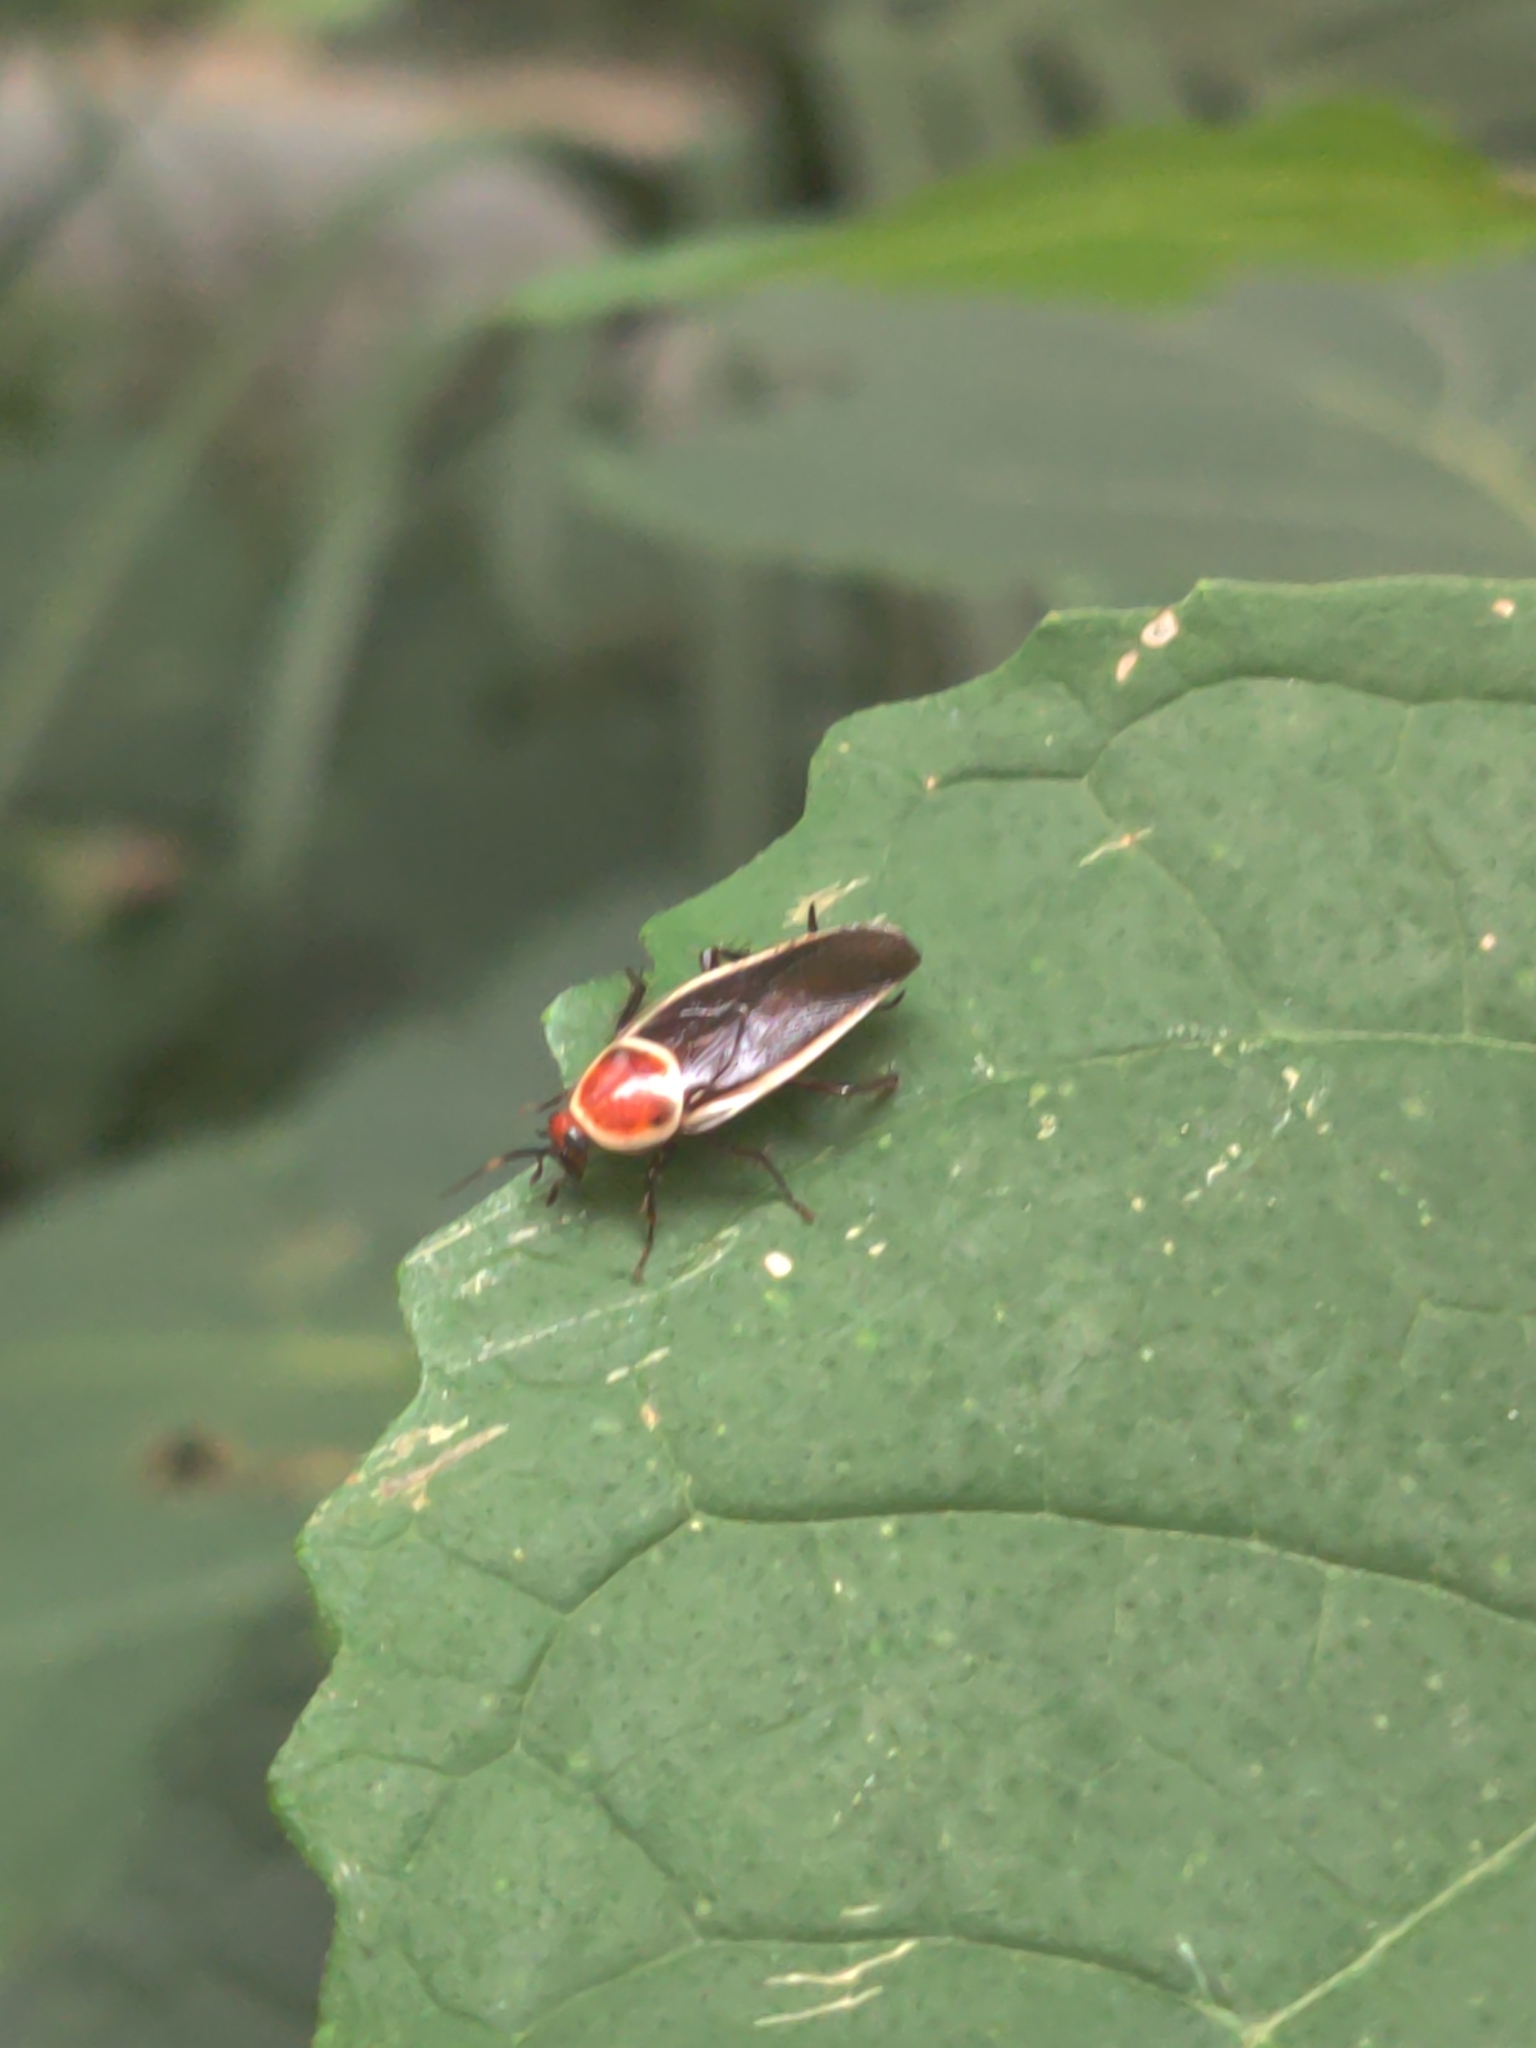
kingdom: Animalia
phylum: Arthropoda
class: Insecta
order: Blattodea
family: Ectobiidae
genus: Pseudomops
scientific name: Pseudomops septentrionalis
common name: Pale-bordered field cockroach
